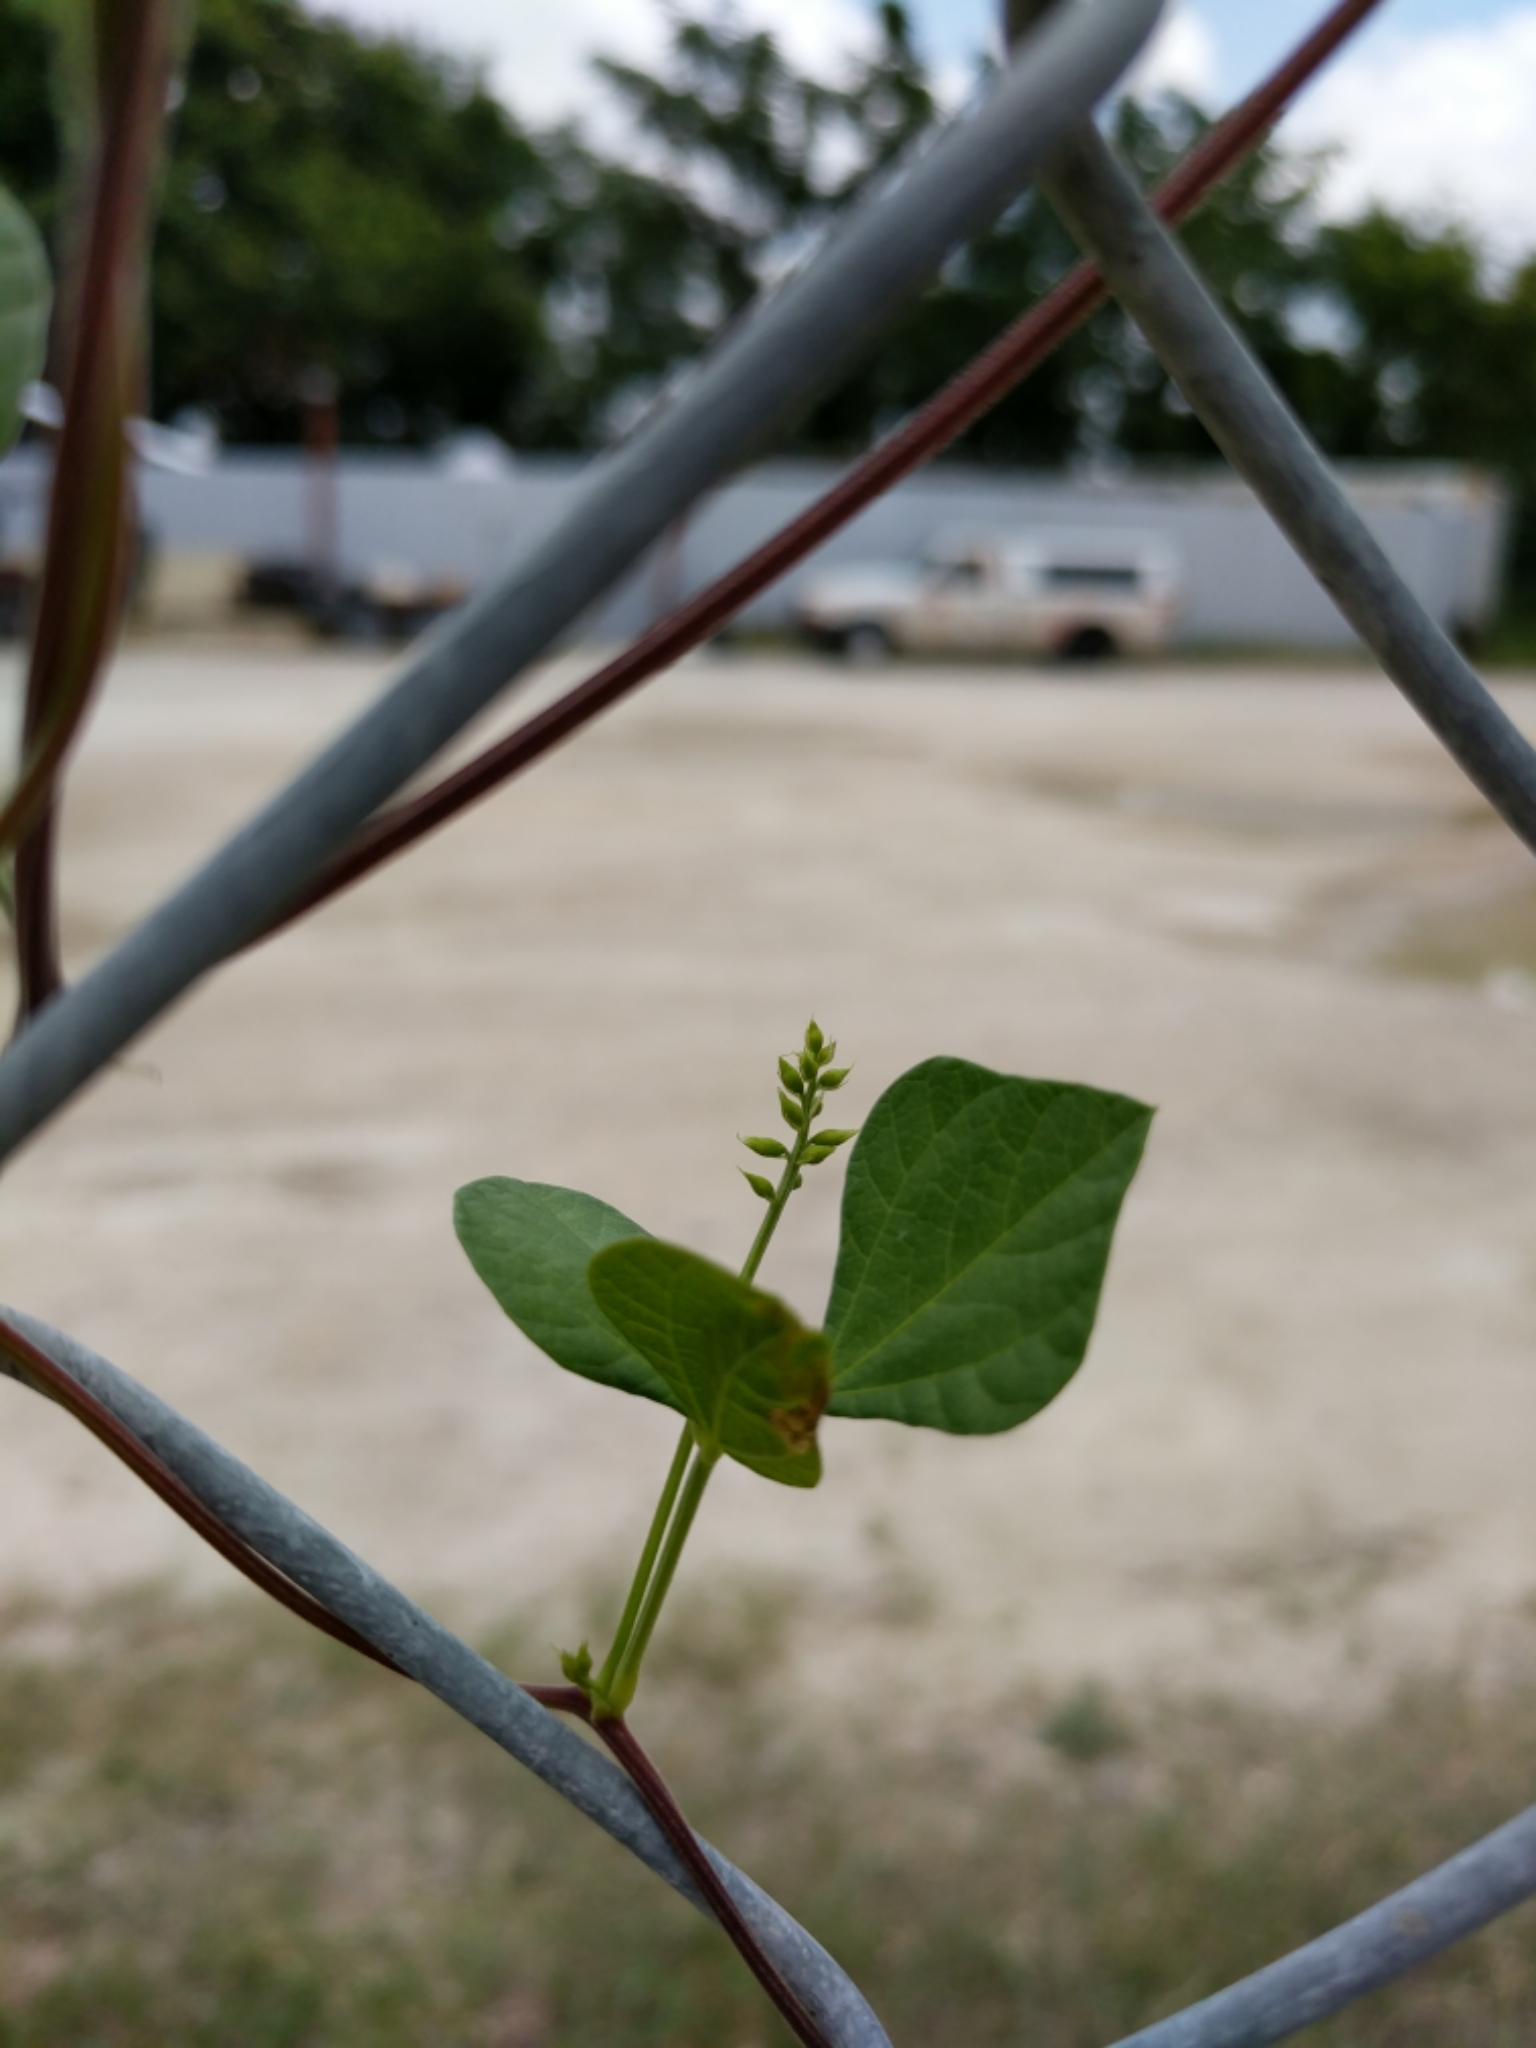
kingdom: Plantae
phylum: Tracheophyta
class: Magnoliopsida
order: Fabales
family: Fabaceae
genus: Rhynchosia
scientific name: Rhynchosia minima
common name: Least snoutbean
